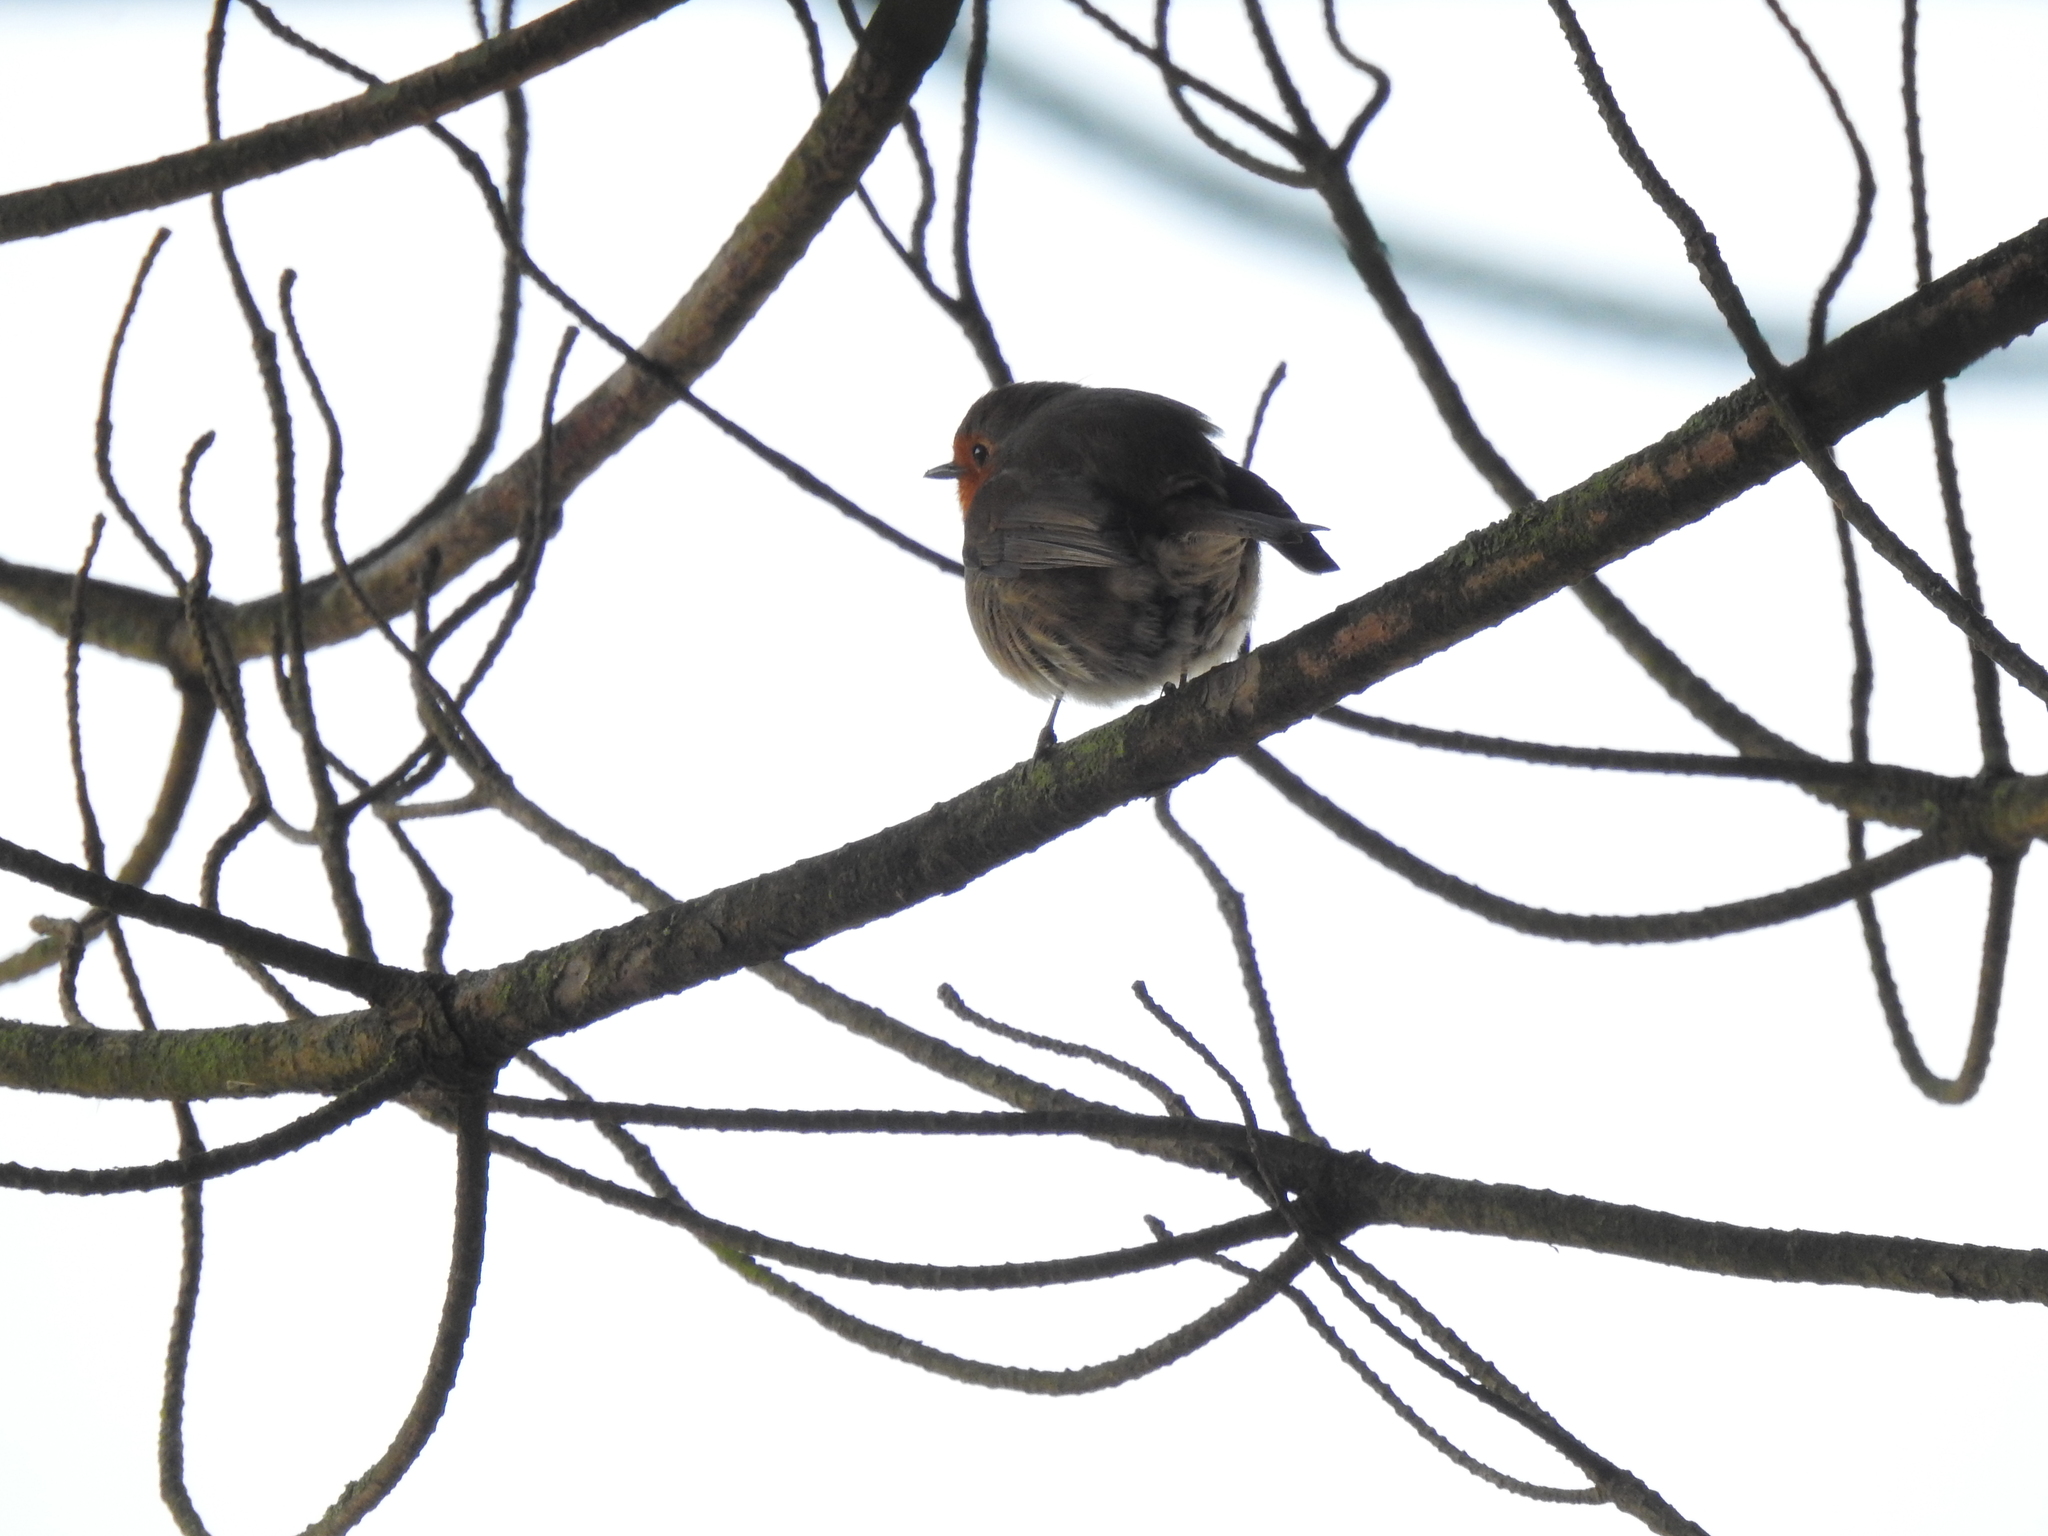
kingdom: Animalia
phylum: Chordata
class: Aves
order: Passeriformes
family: Muscicapidae
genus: Erithacus
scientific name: Erithacus rubecula
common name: European robin
